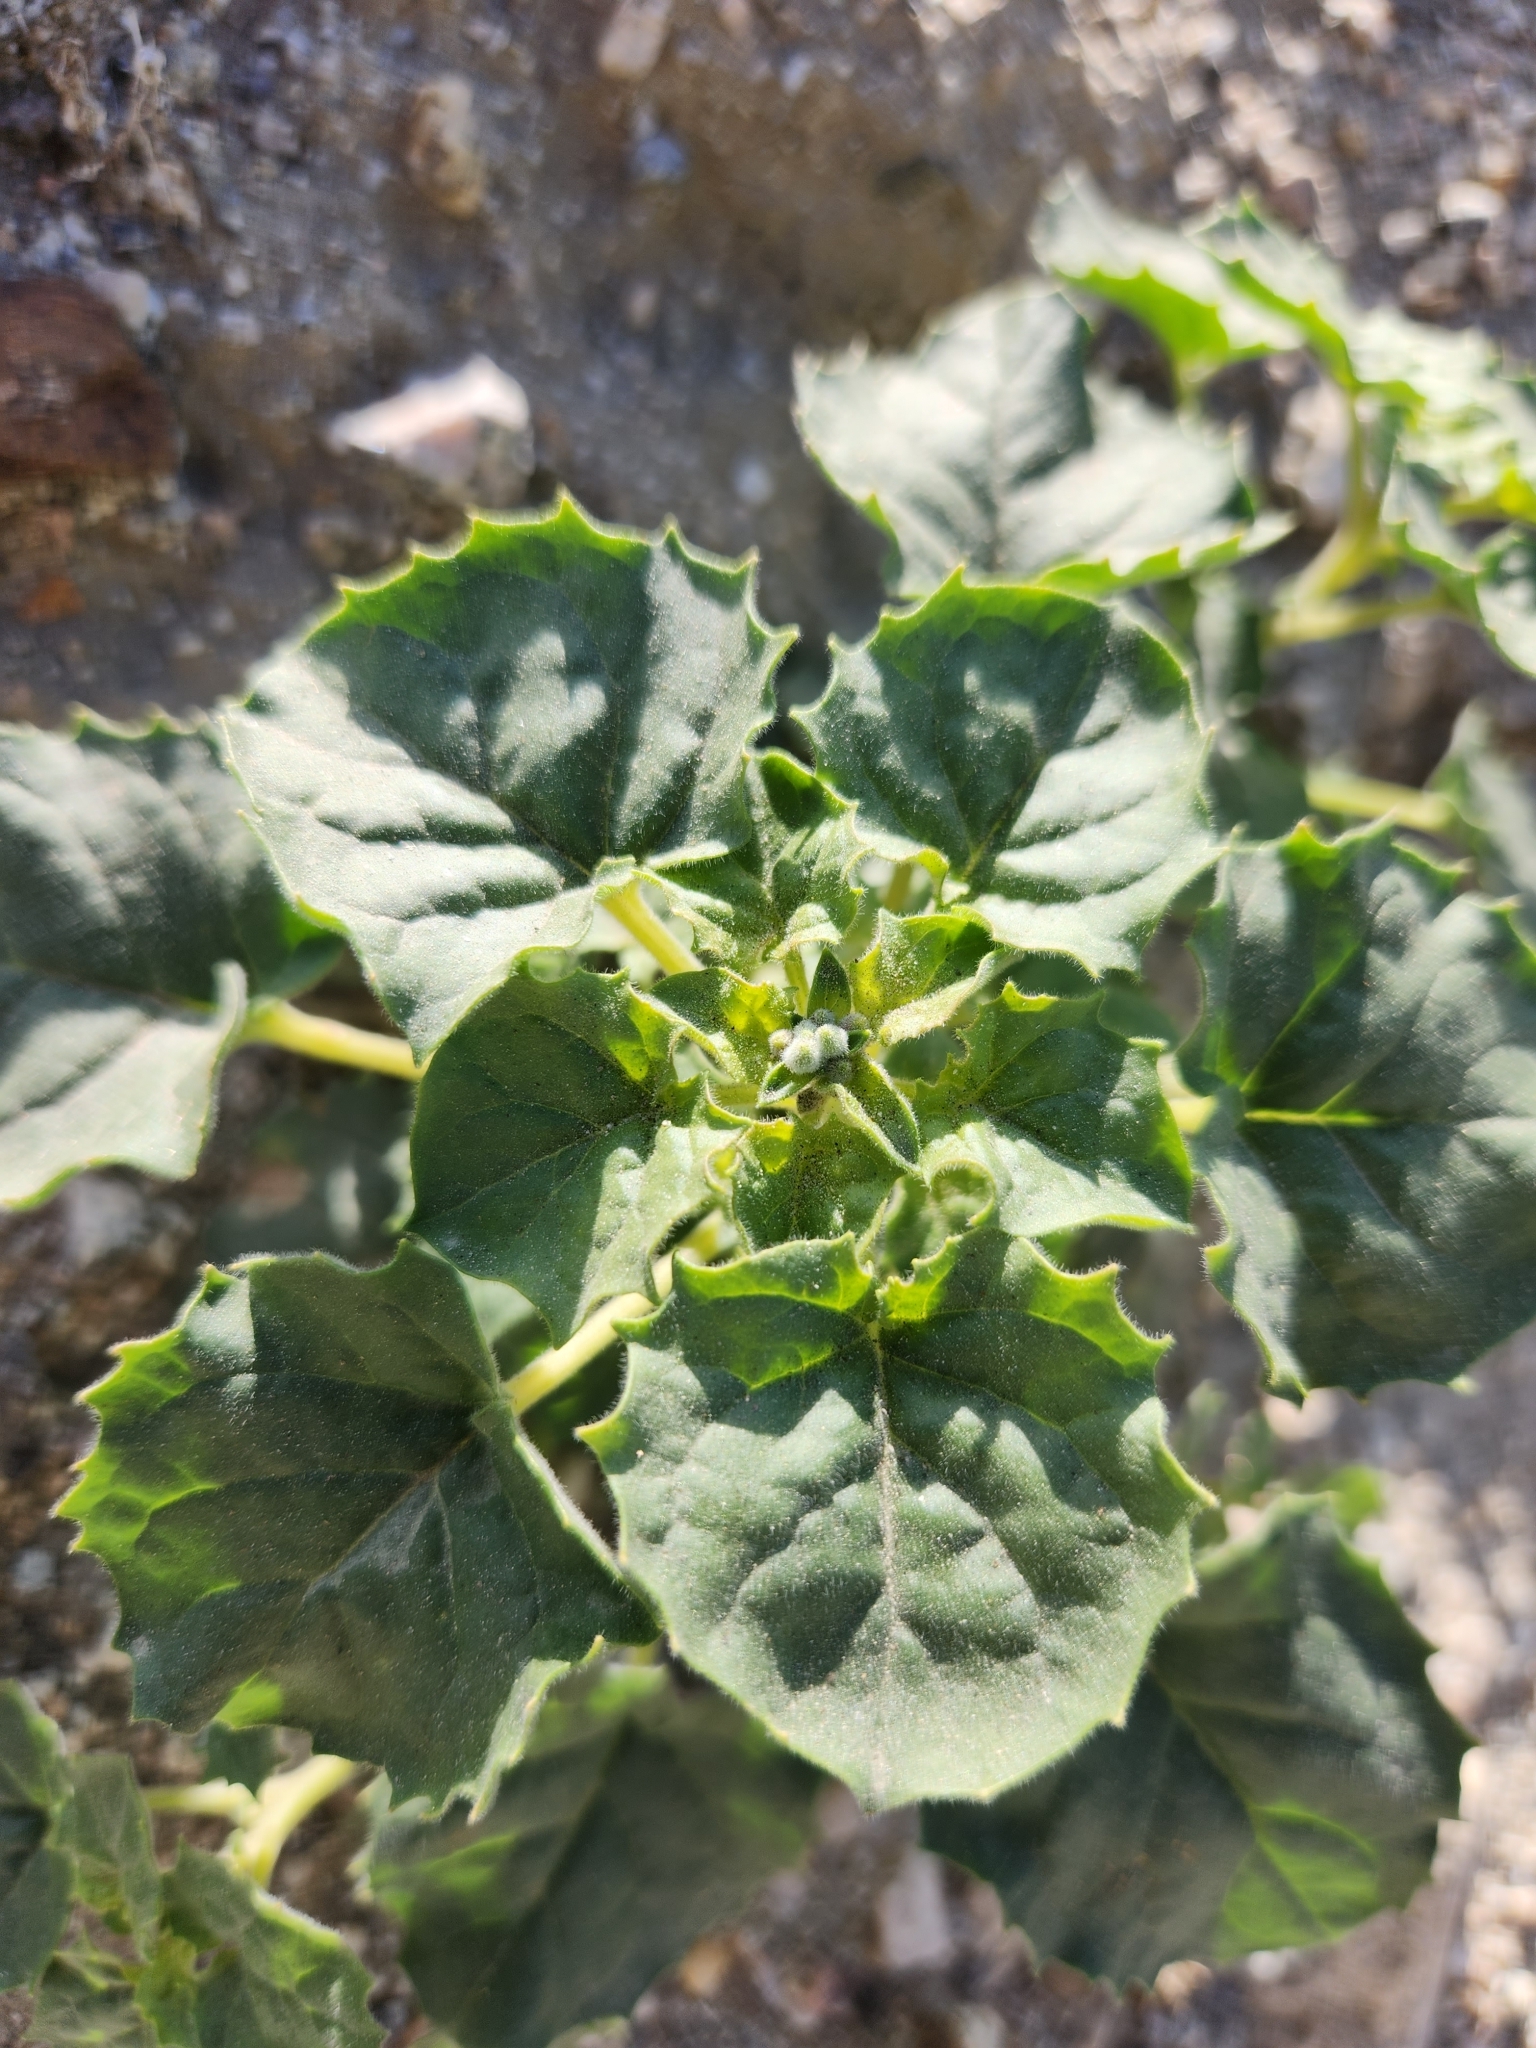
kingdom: Plantae
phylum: Tracheophyta
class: Magnoliopsida
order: Myrtales
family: Onagraceae
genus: Chylismia
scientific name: Chylismia cardiophylla
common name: Heartleaf suncup
